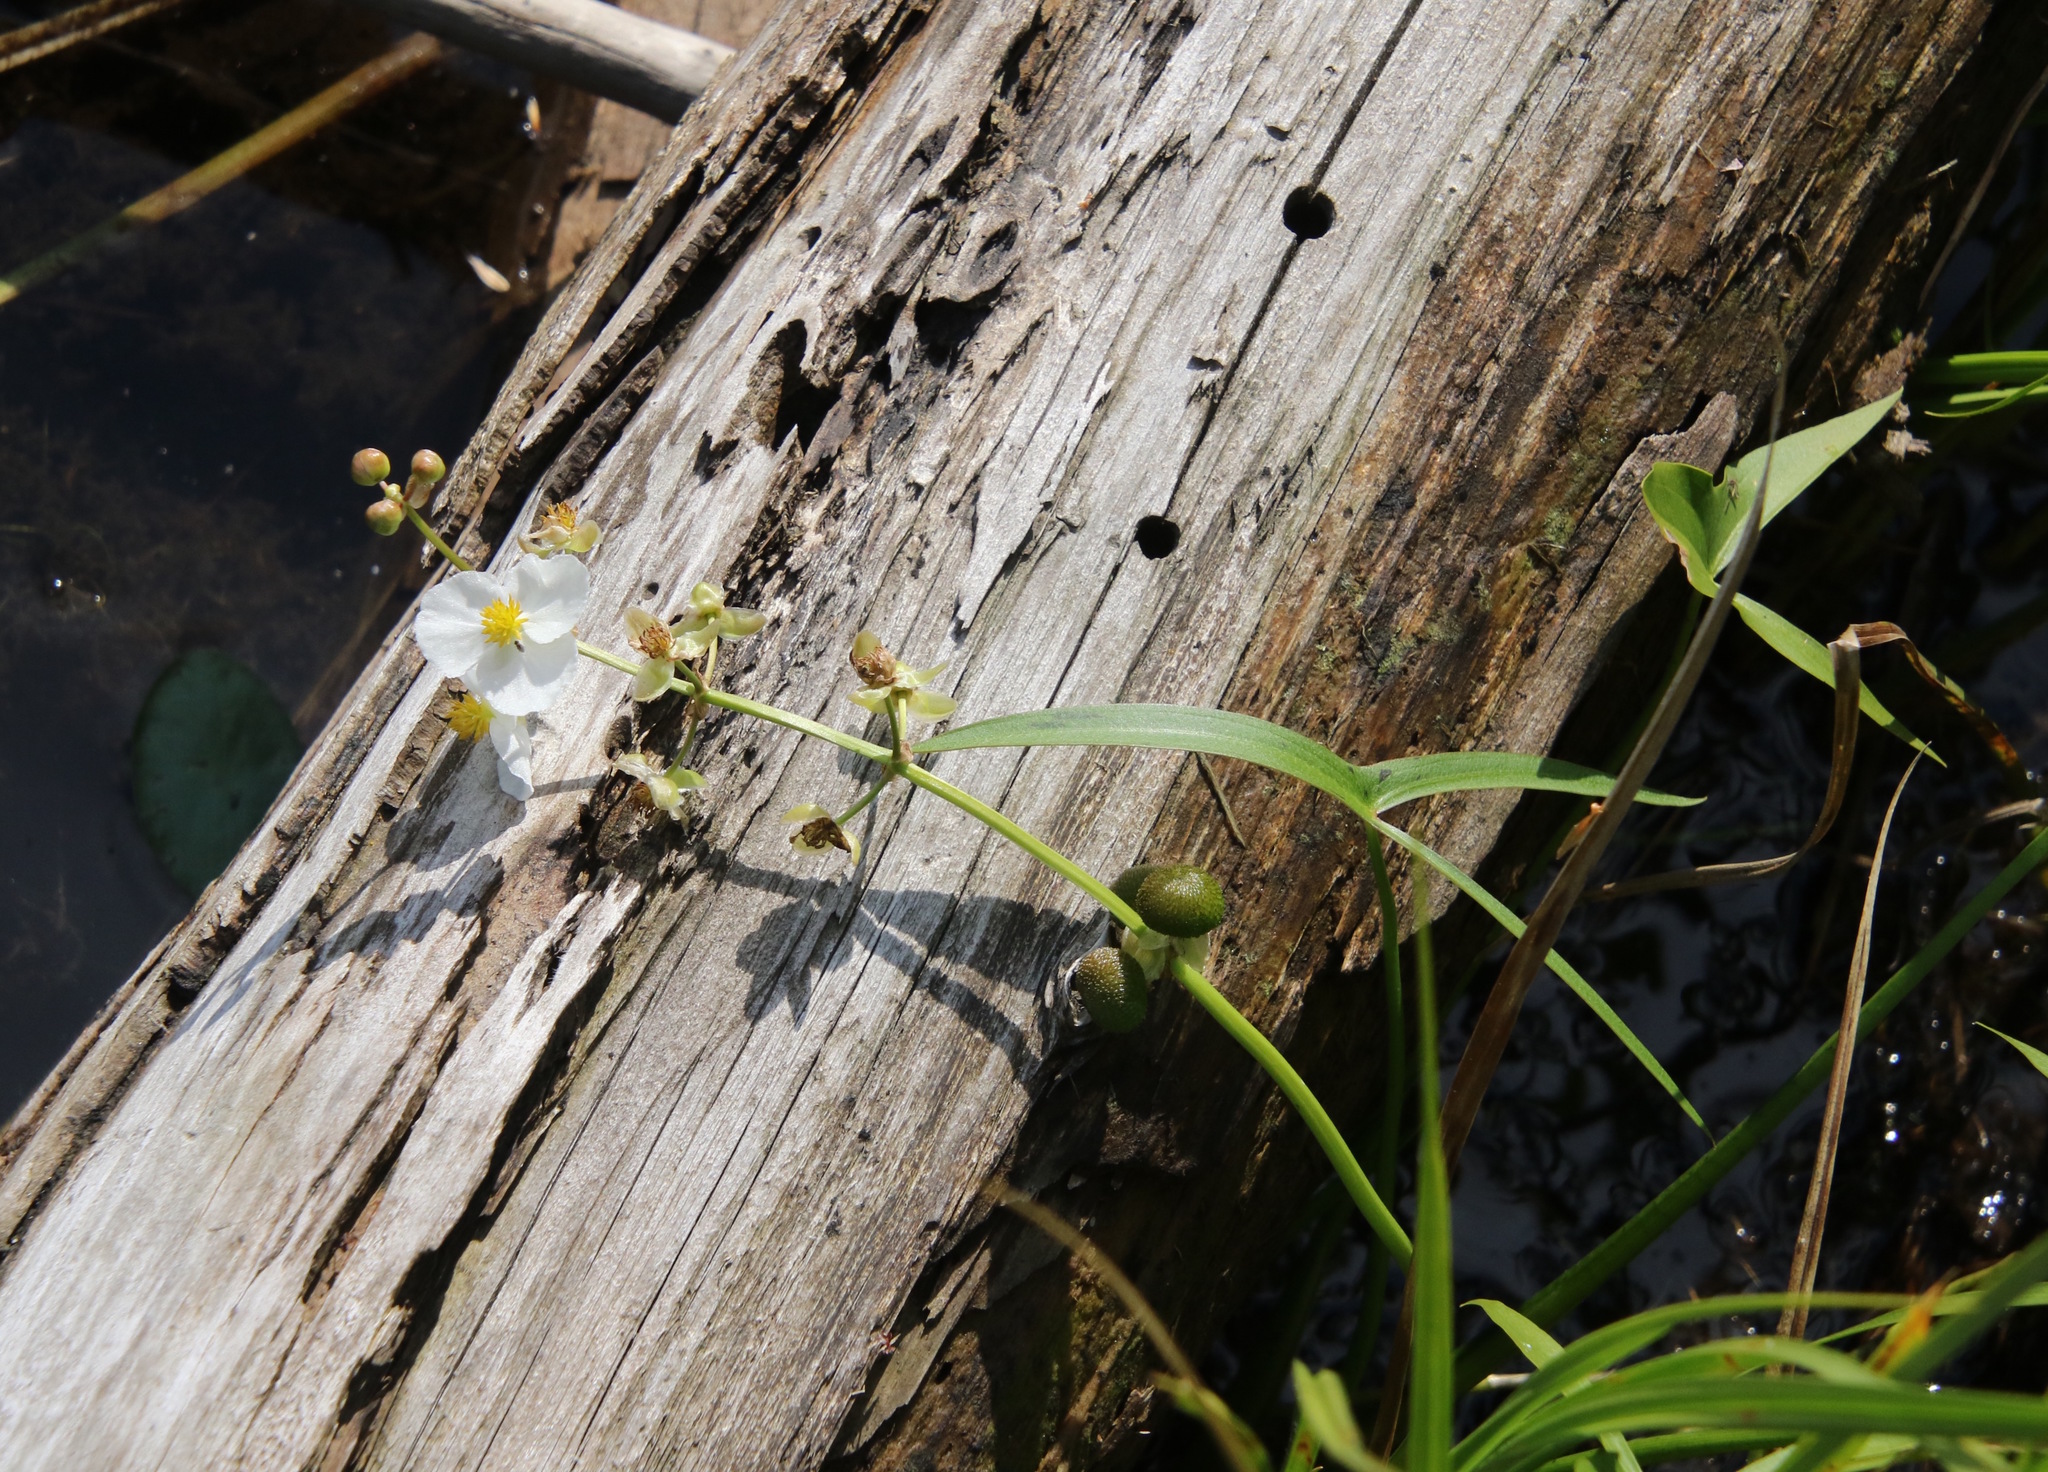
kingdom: Plantae
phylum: Tracheophyta
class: Liliopsida
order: Alismatales
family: Alismataceae
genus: Sagittaria
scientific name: Sagittaria latifolia
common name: Duck-potato
